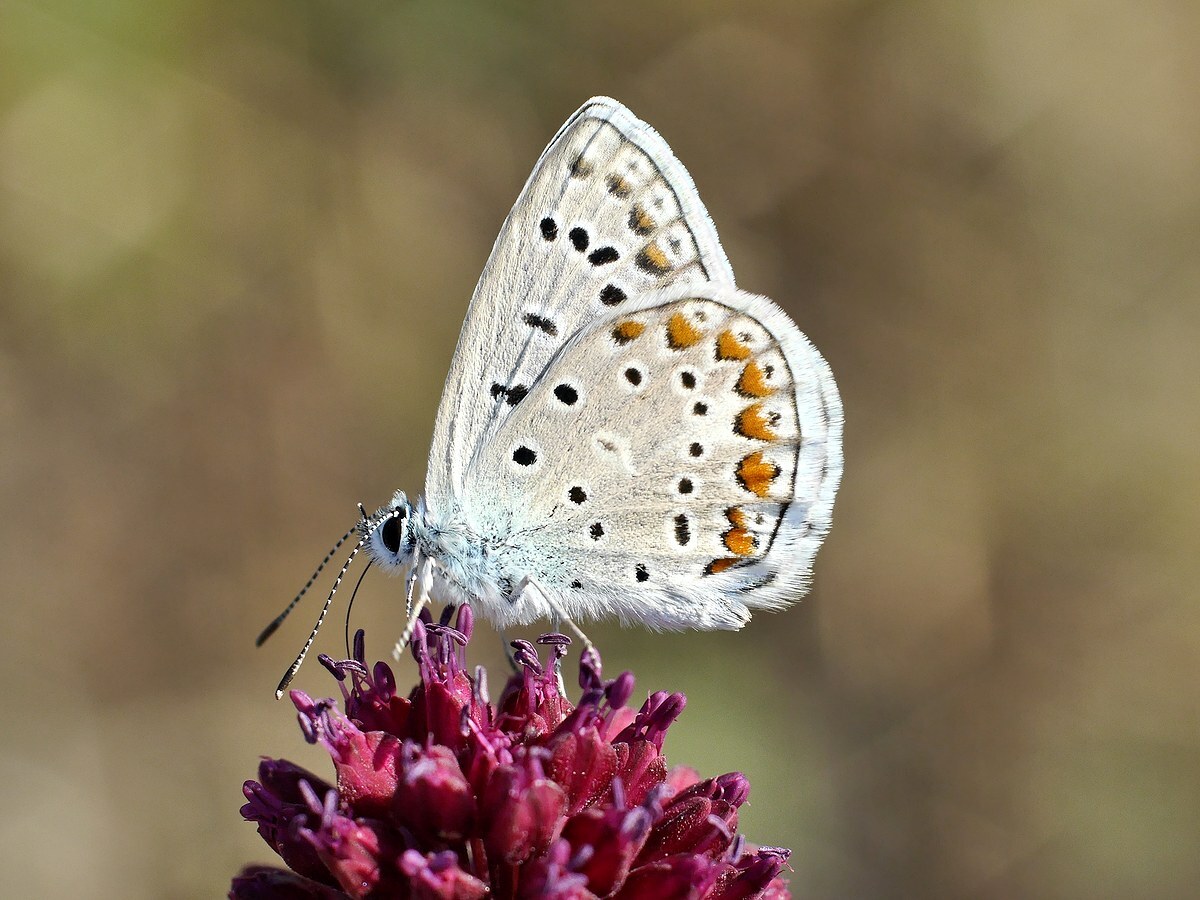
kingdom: Animalia
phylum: Arthropoda
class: Insecta
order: Lepidoptera
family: Lycaenidae
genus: Polyommatus
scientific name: Polyommatus icarus
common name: Common blue
